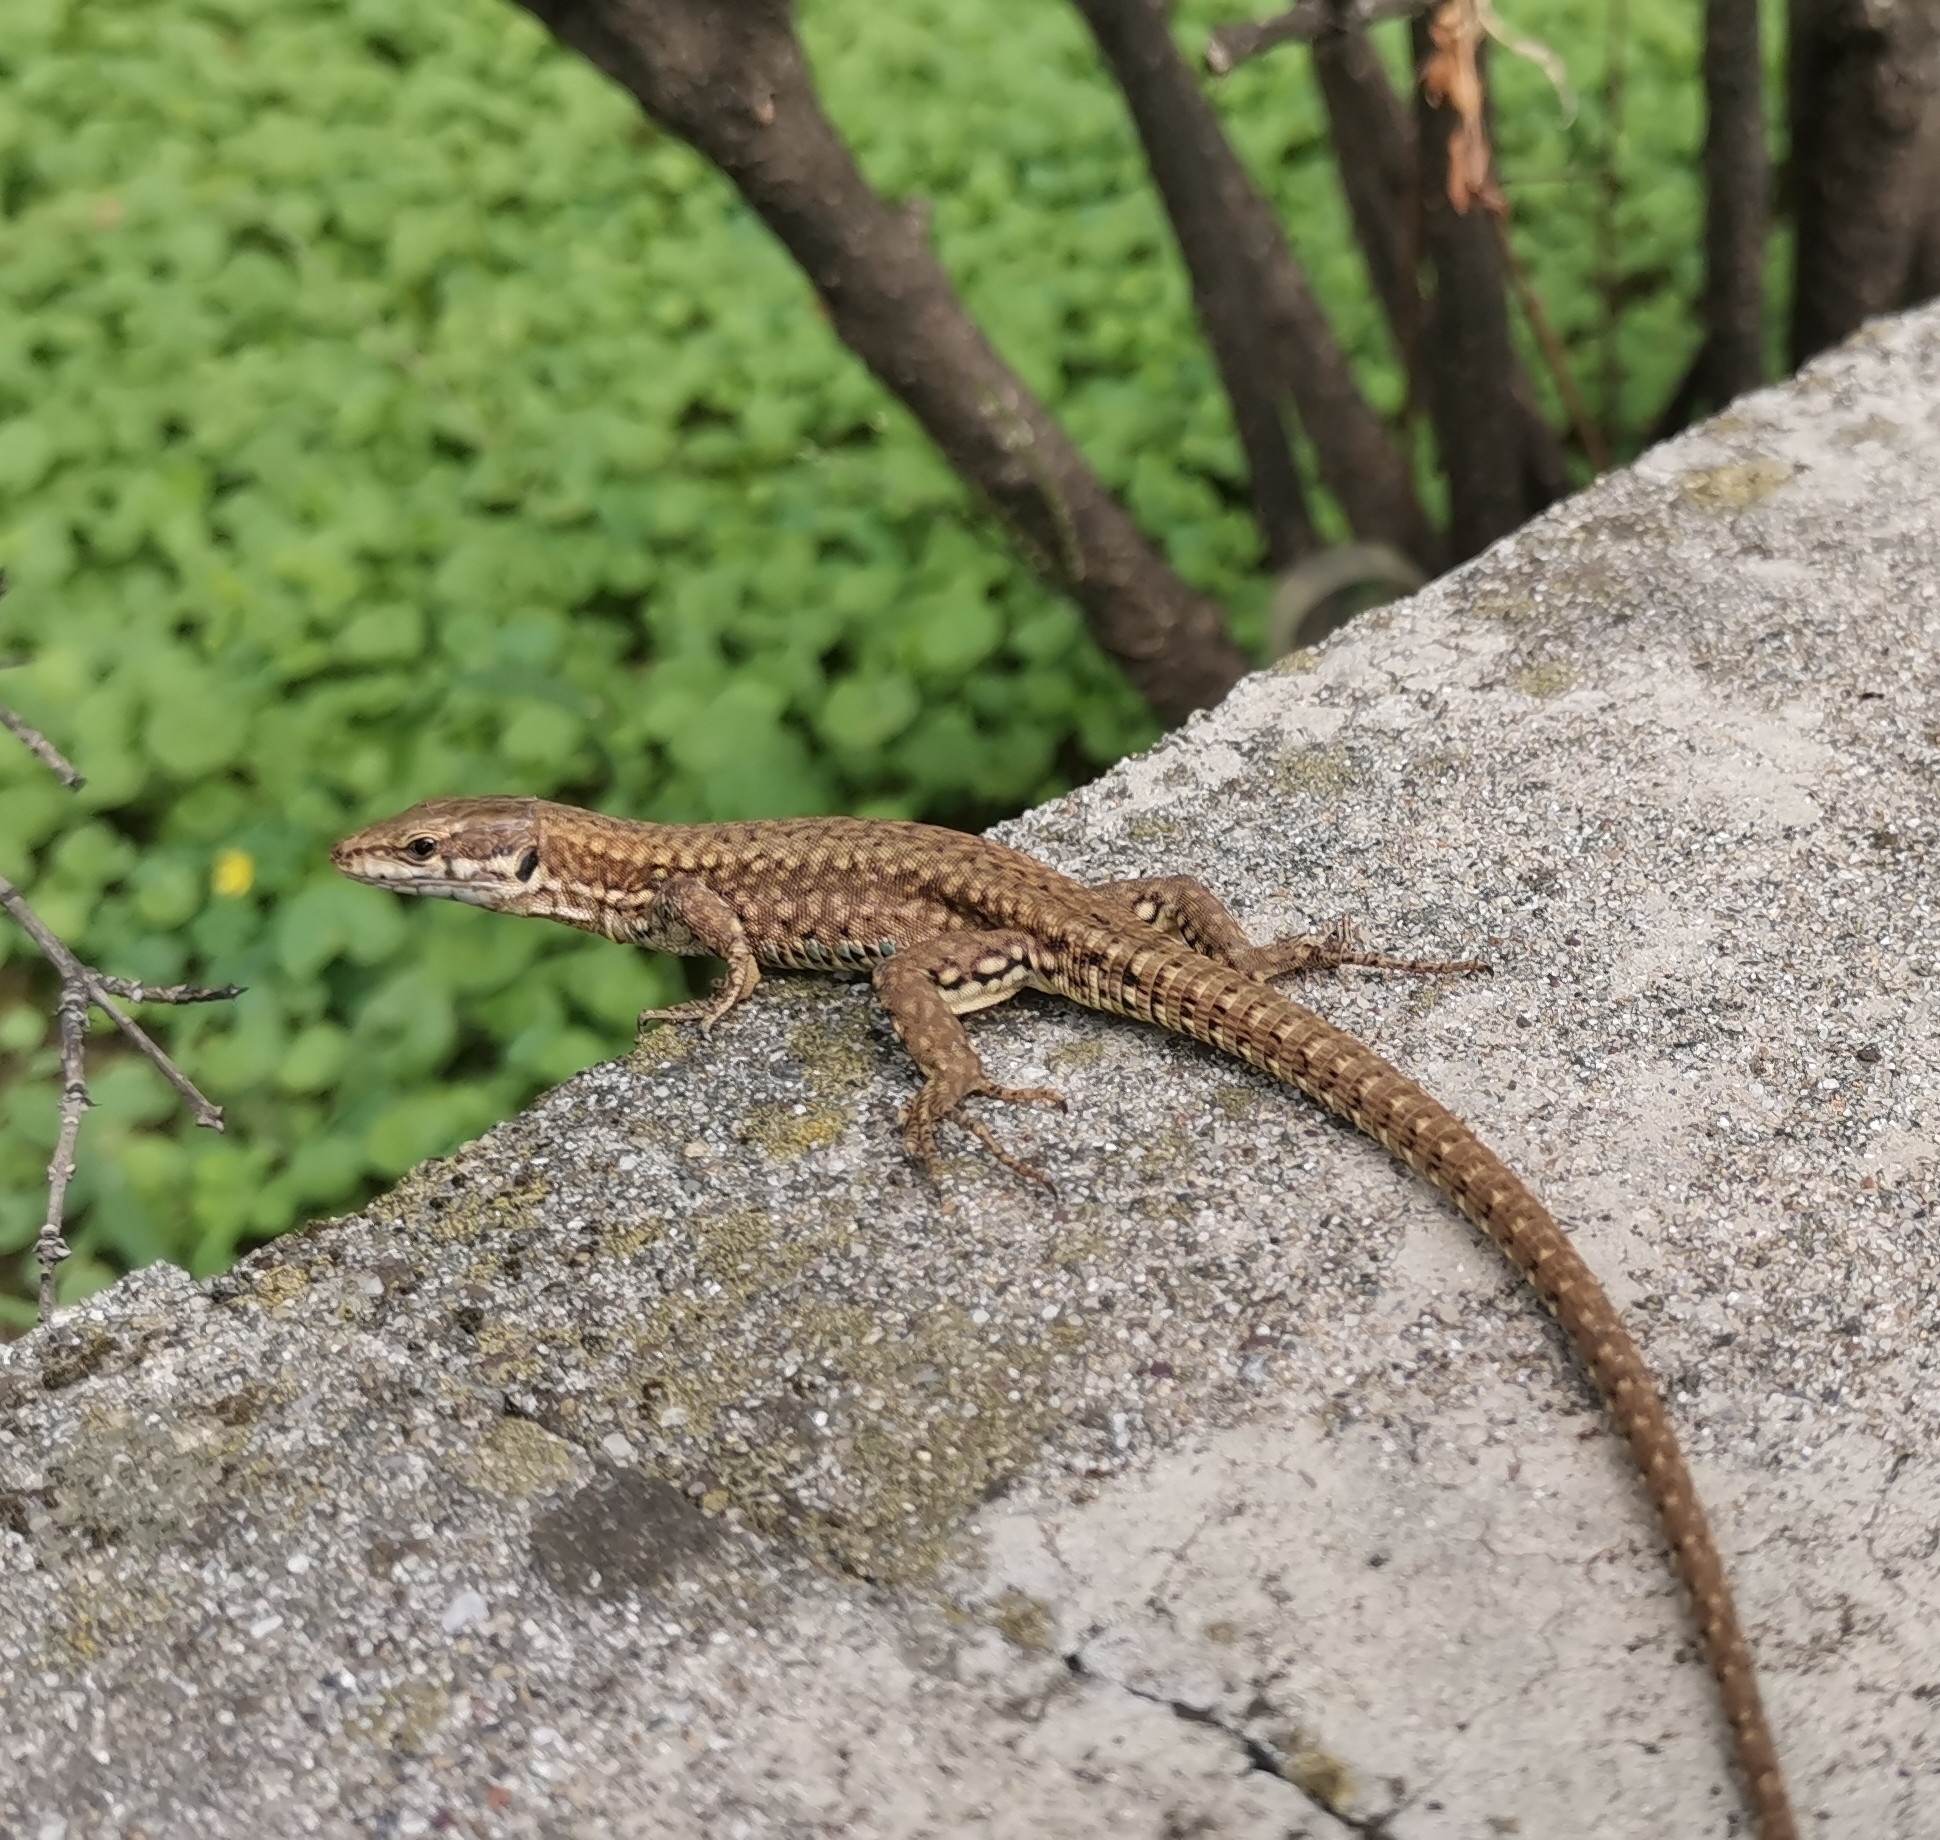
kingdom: Animalia
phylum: Chordata
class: Squamata
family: Lacertidae
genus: Podarcis
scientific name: Podarcis muralis
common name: Common wall lizard
